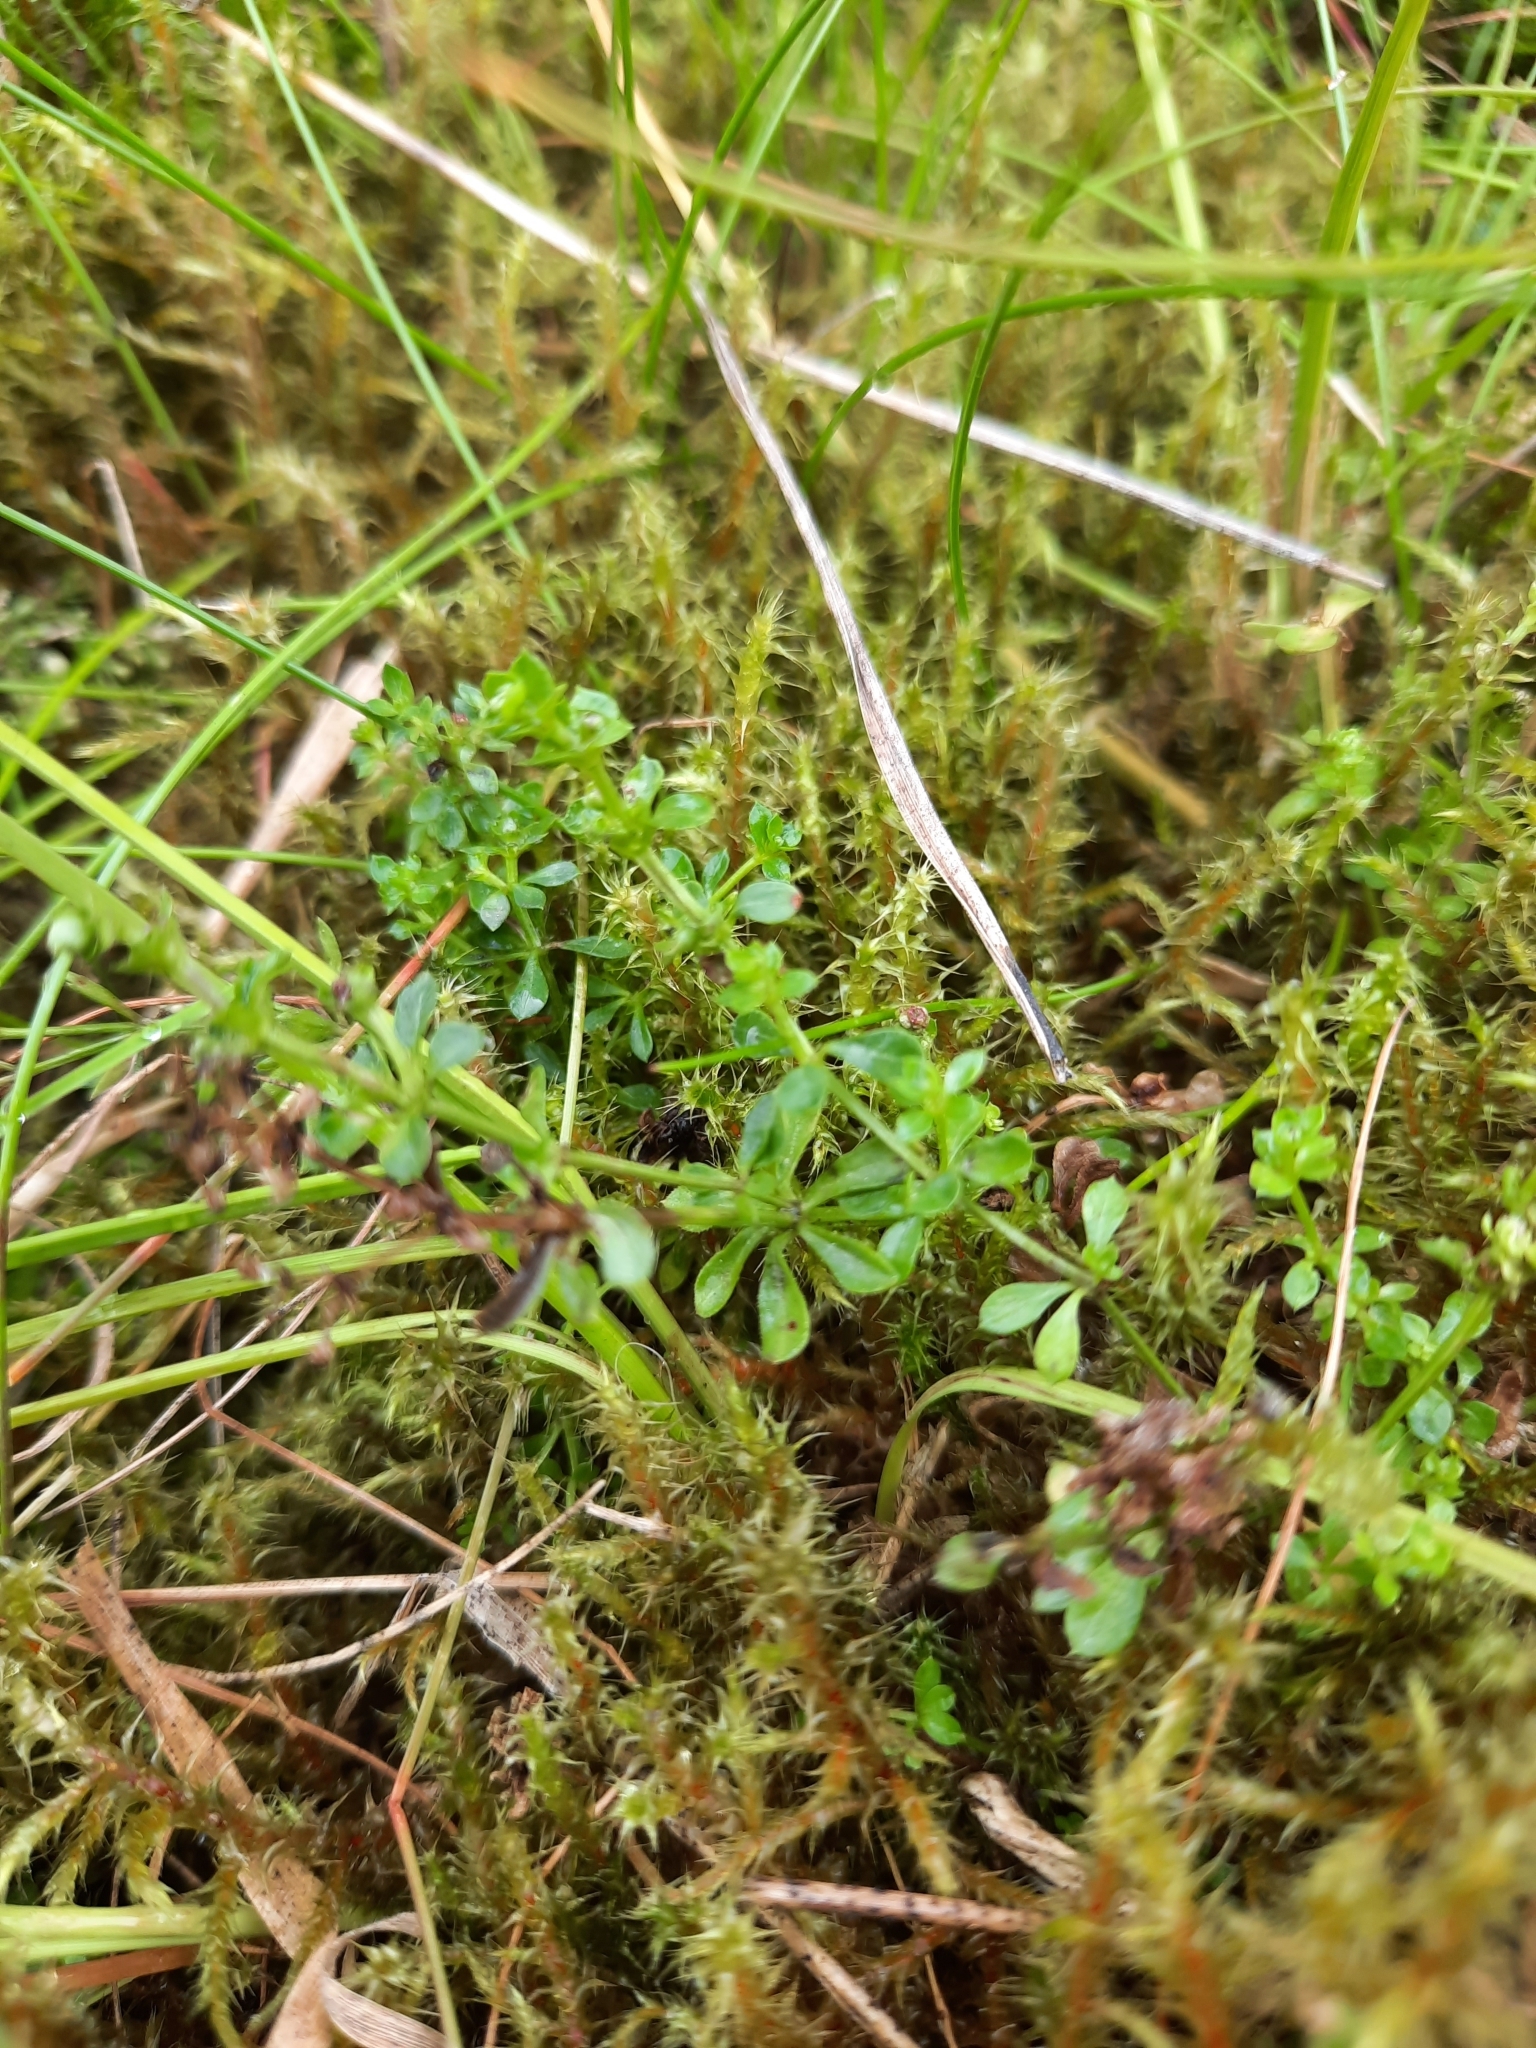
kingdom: Plantae
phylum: Tracheophyta
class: Magnoliopsida
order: Gentianales
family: Rubiaceae
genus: Galium
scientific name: Galium saxatile
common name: Heath bedstraw
